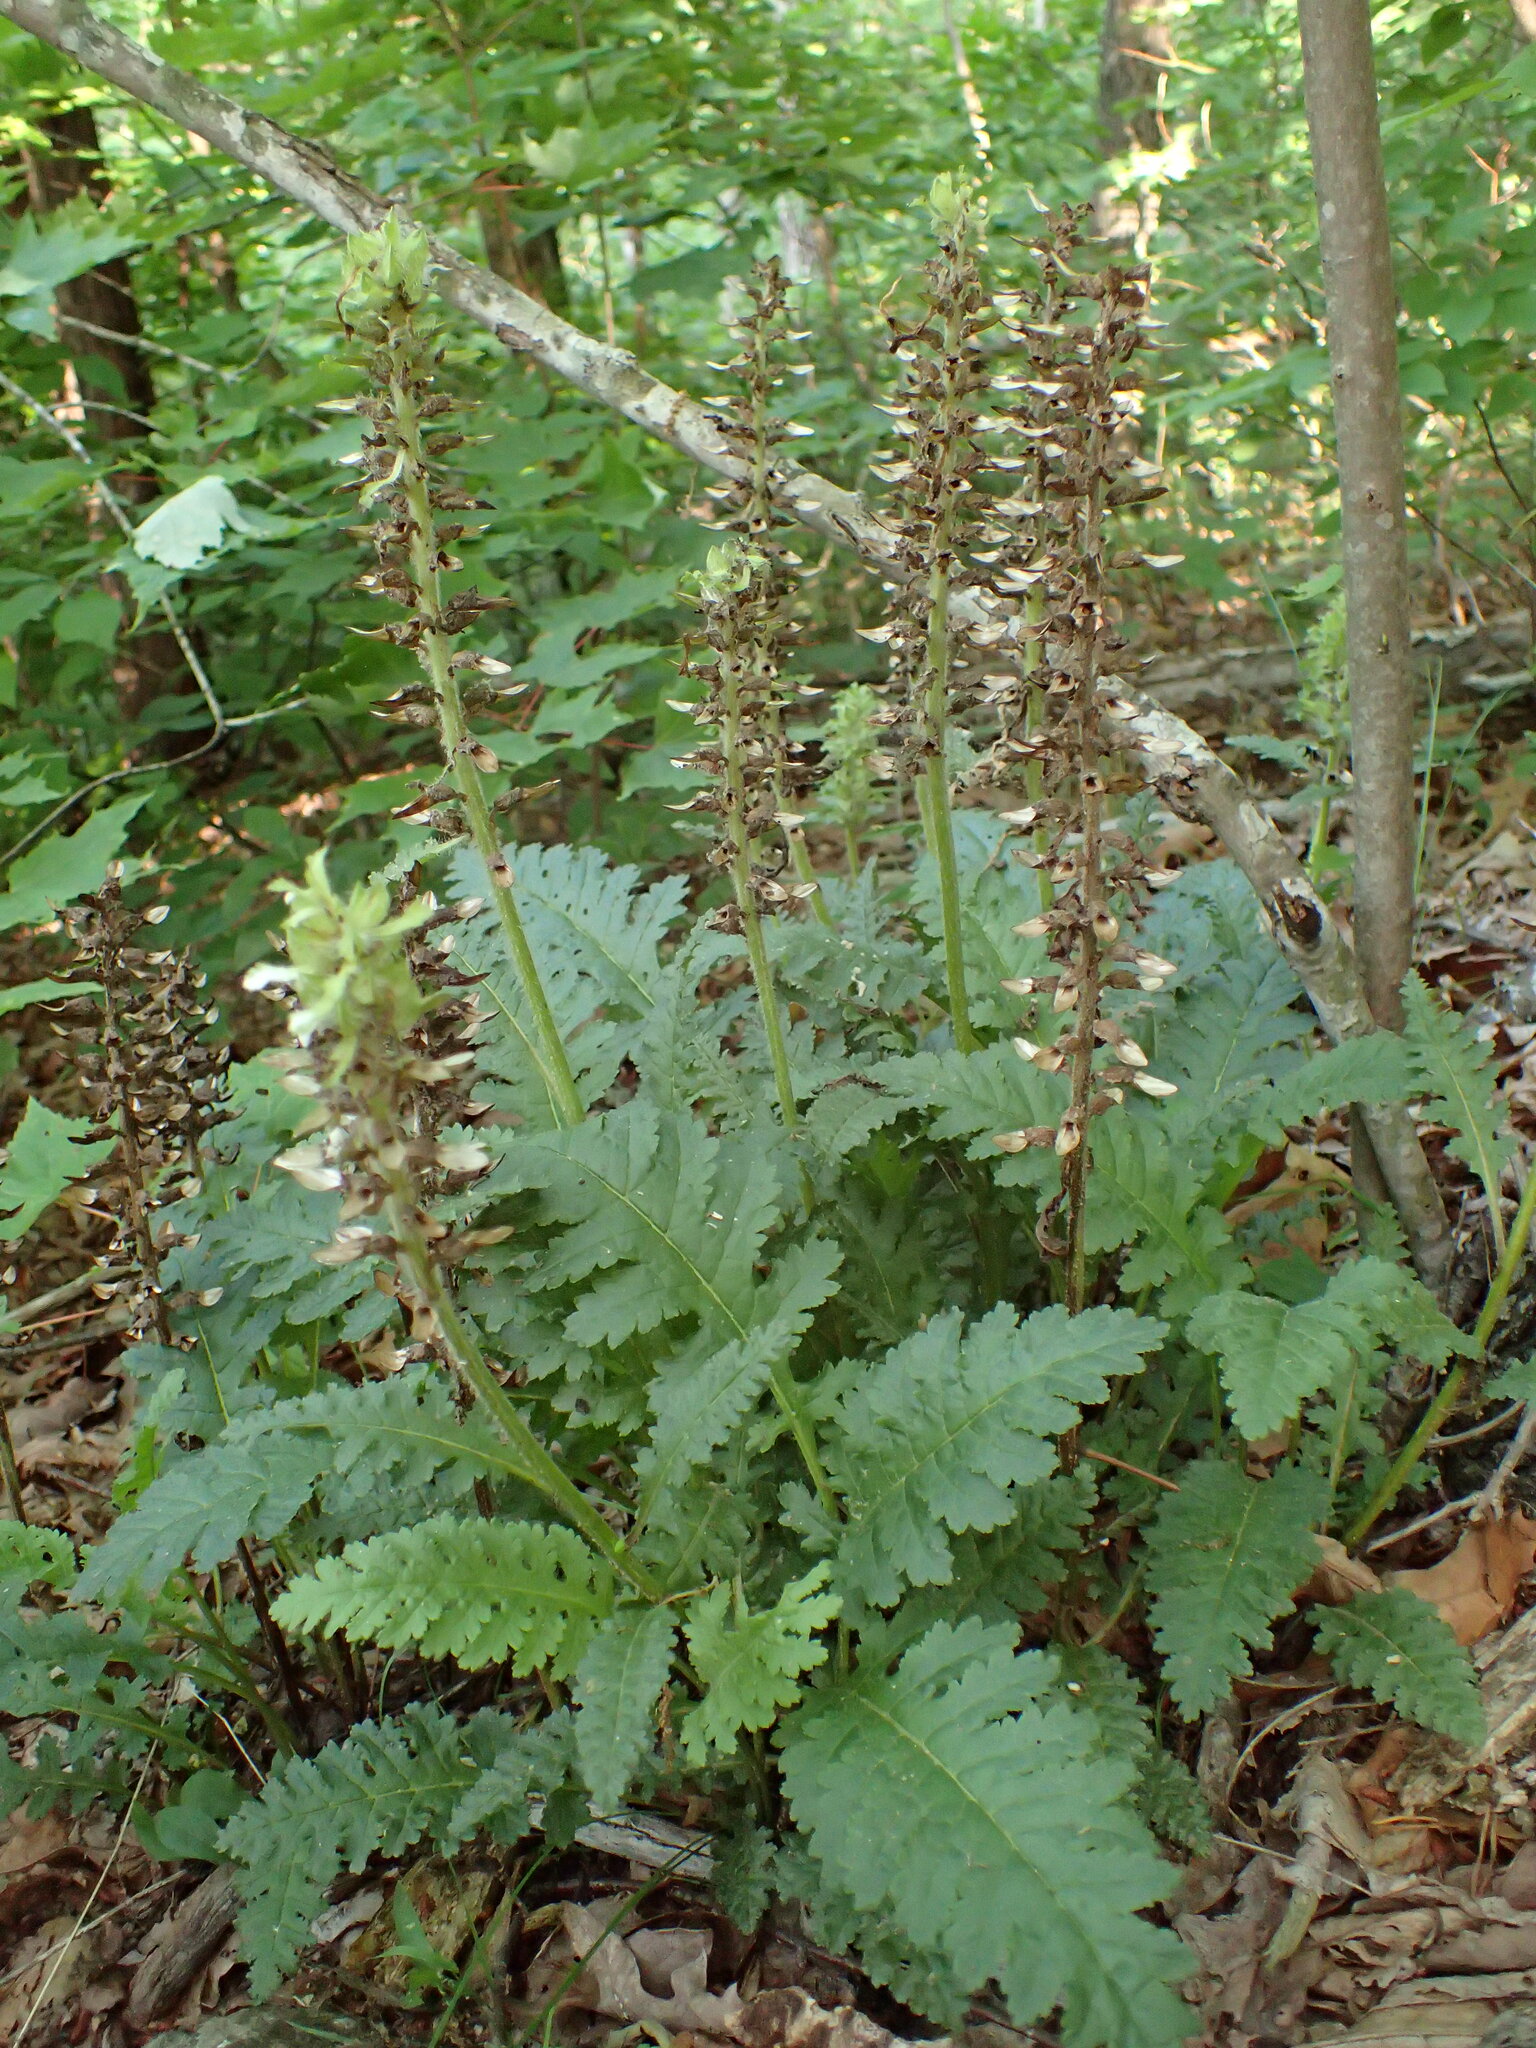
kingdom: Plantae
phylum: Tracheophyta
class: Magnoliopsida
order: Lamiales
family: Orobanchaceae
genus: Pedicularis
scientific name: Pedicularis canadensis
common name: Early lousewort
